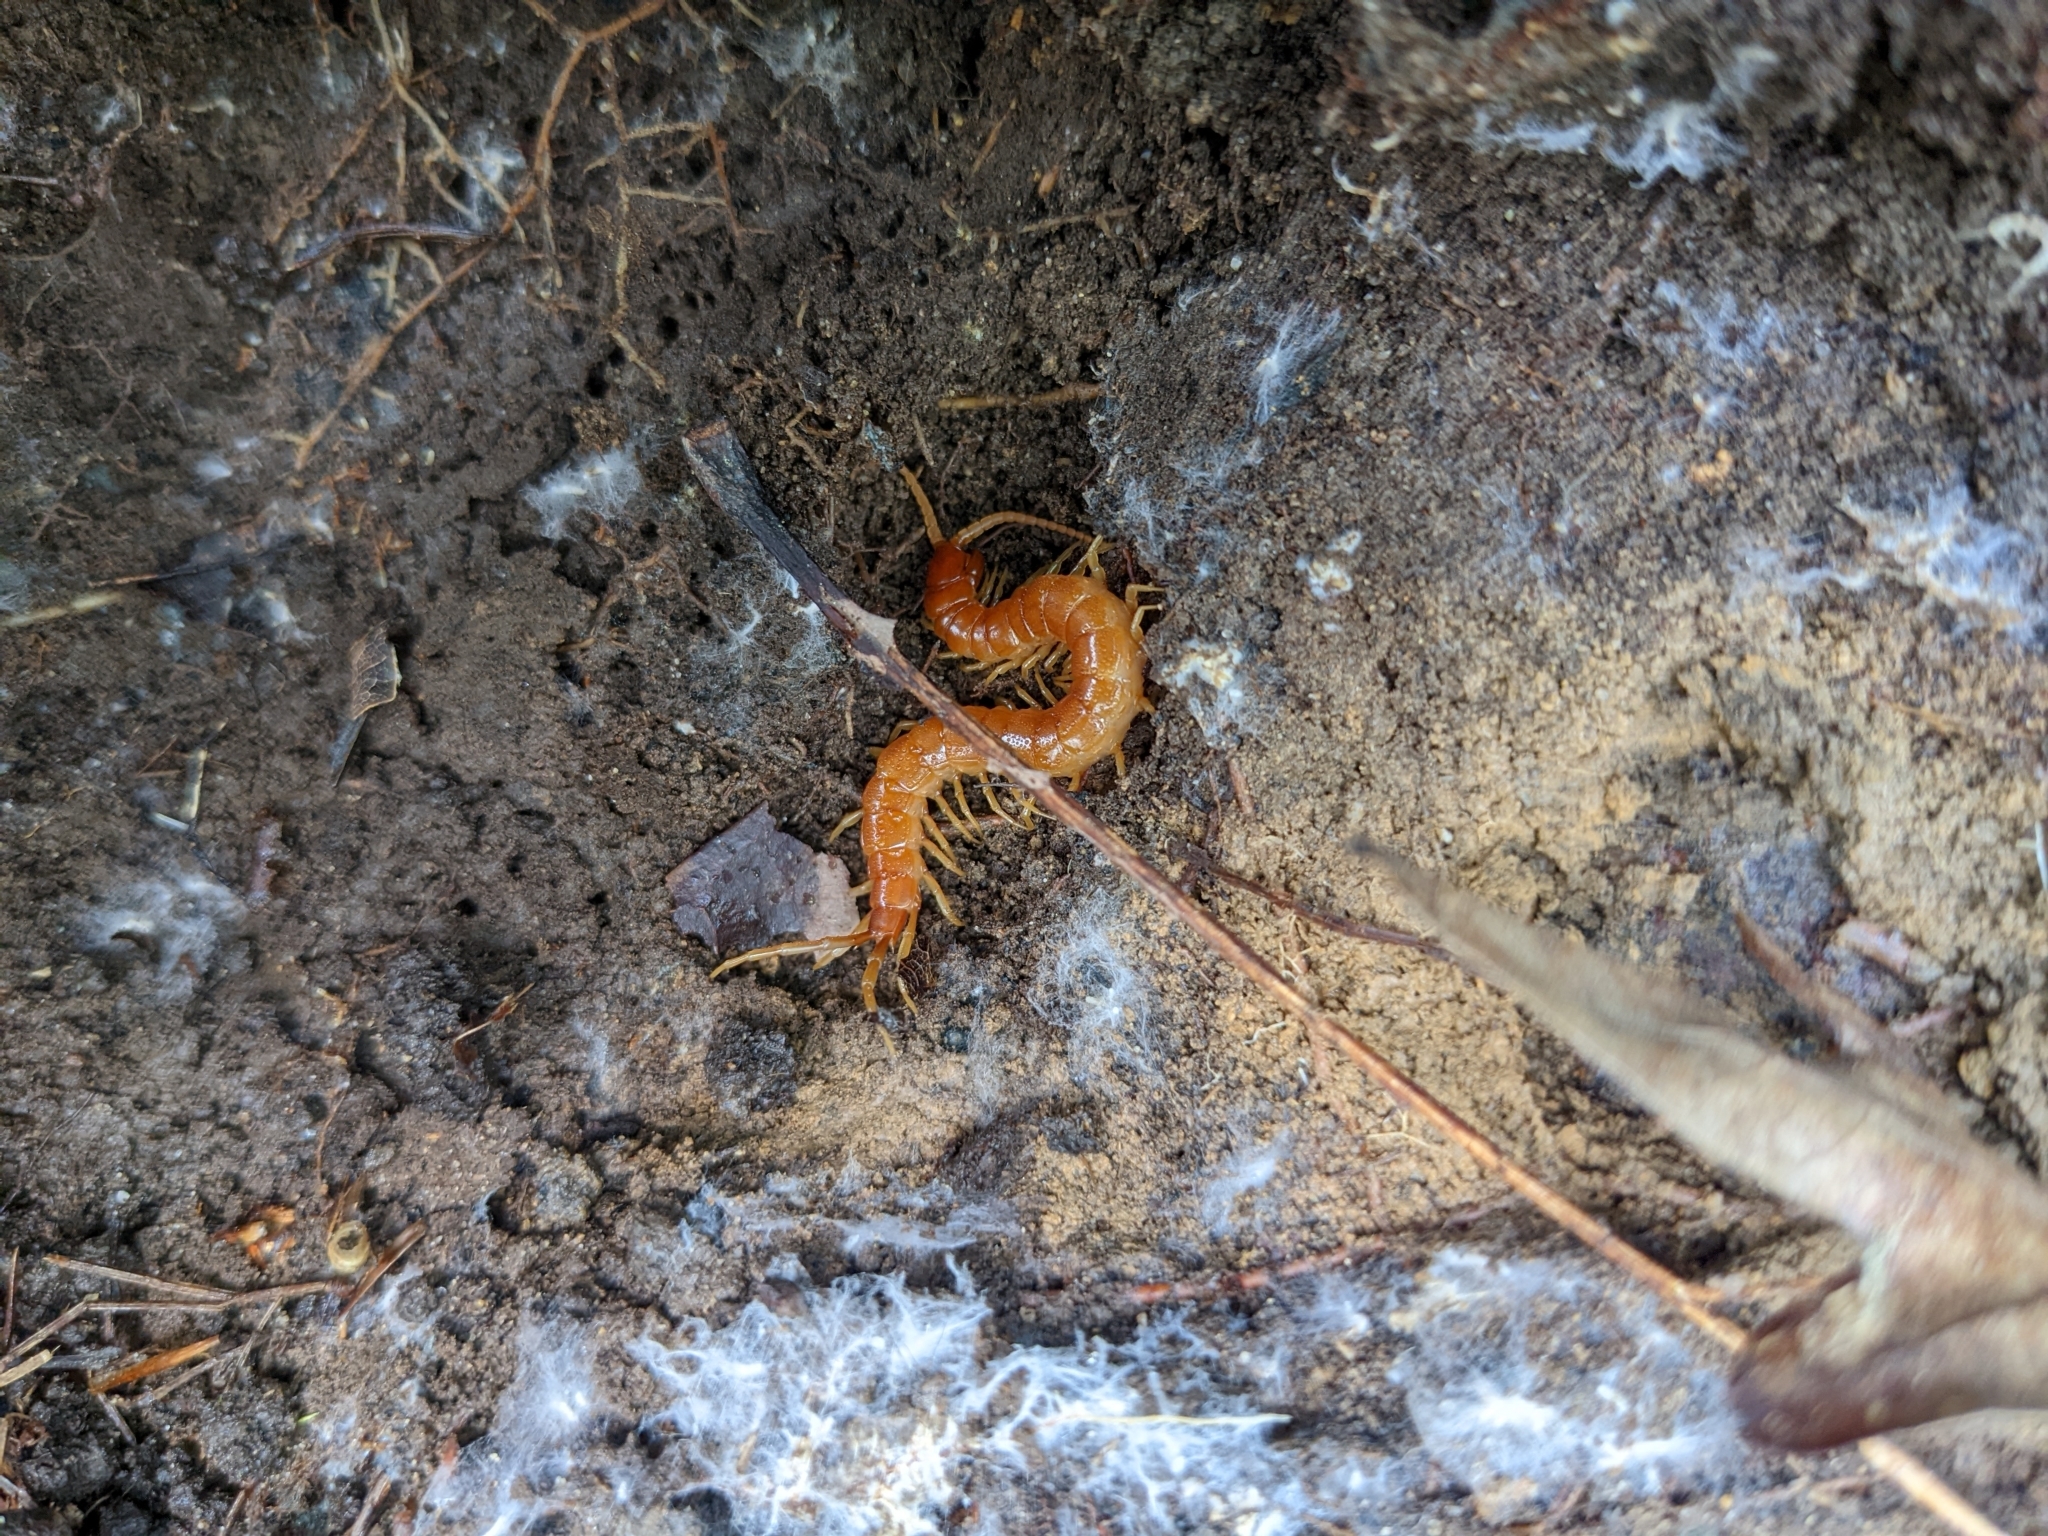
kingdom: Animalia
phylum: Arthropoda
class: Chilopoda
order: Scolopendromorpha
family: Scolopocryptopidae
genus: Scolopocryptops
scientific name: Scolopocryptops sexspinosus
